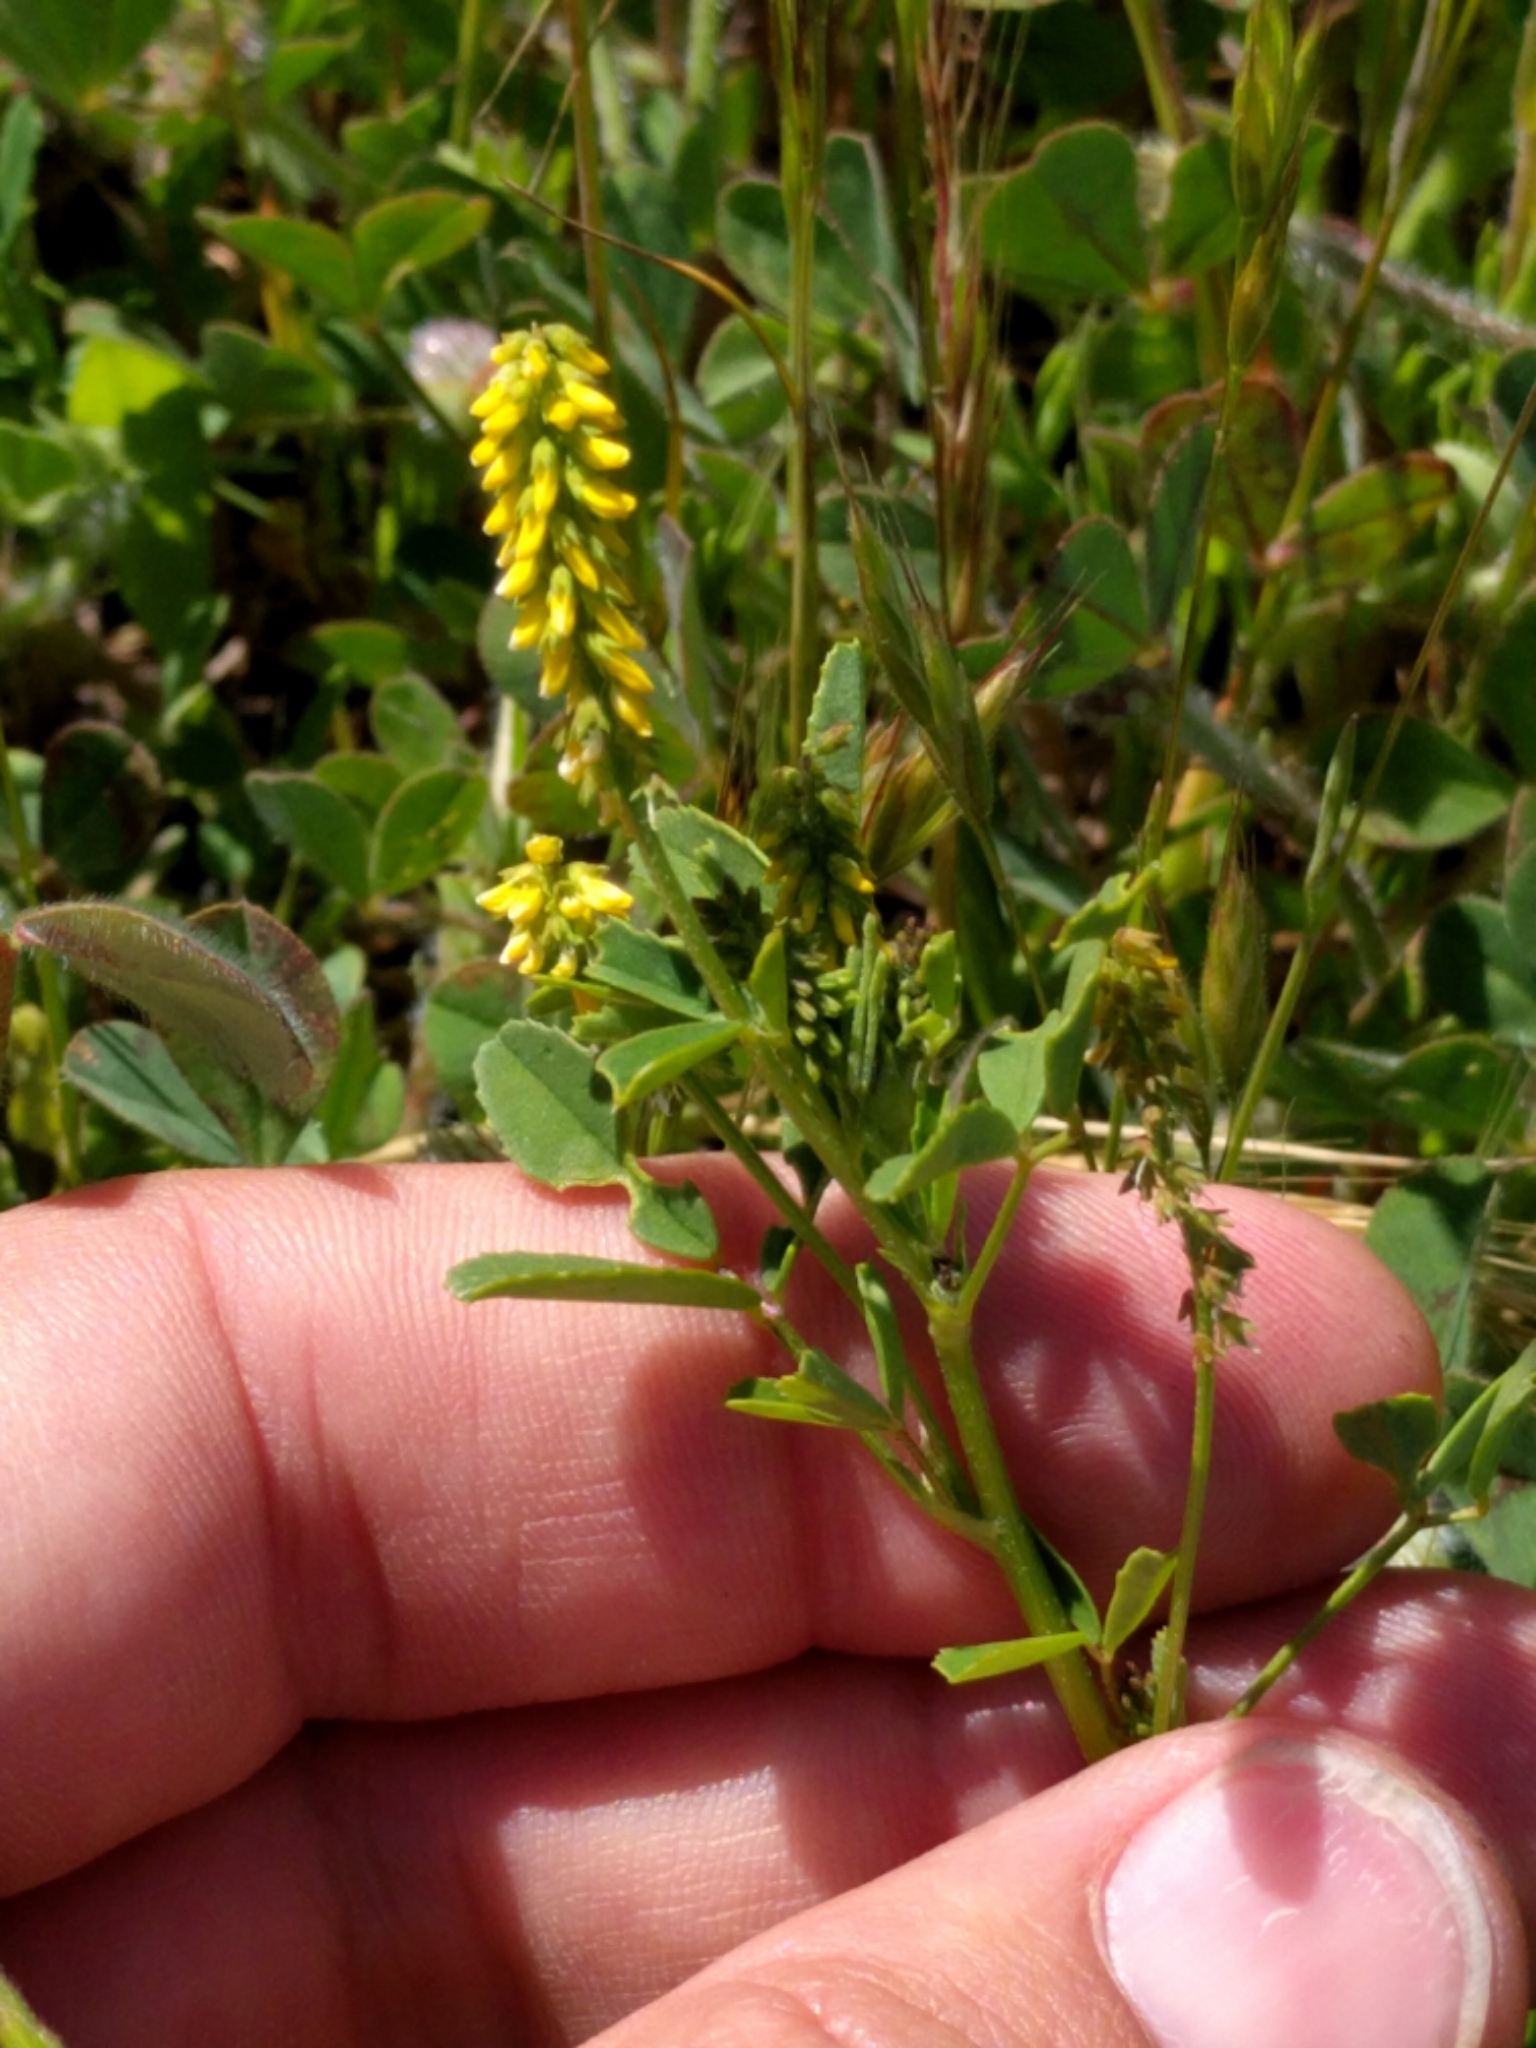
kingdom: Plantae
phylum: Tracheophyta
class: Magnoliopsida
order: Fabales
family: Fabaceae
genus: Melilotus
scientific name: Melilotus indicus
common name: Small melilot
